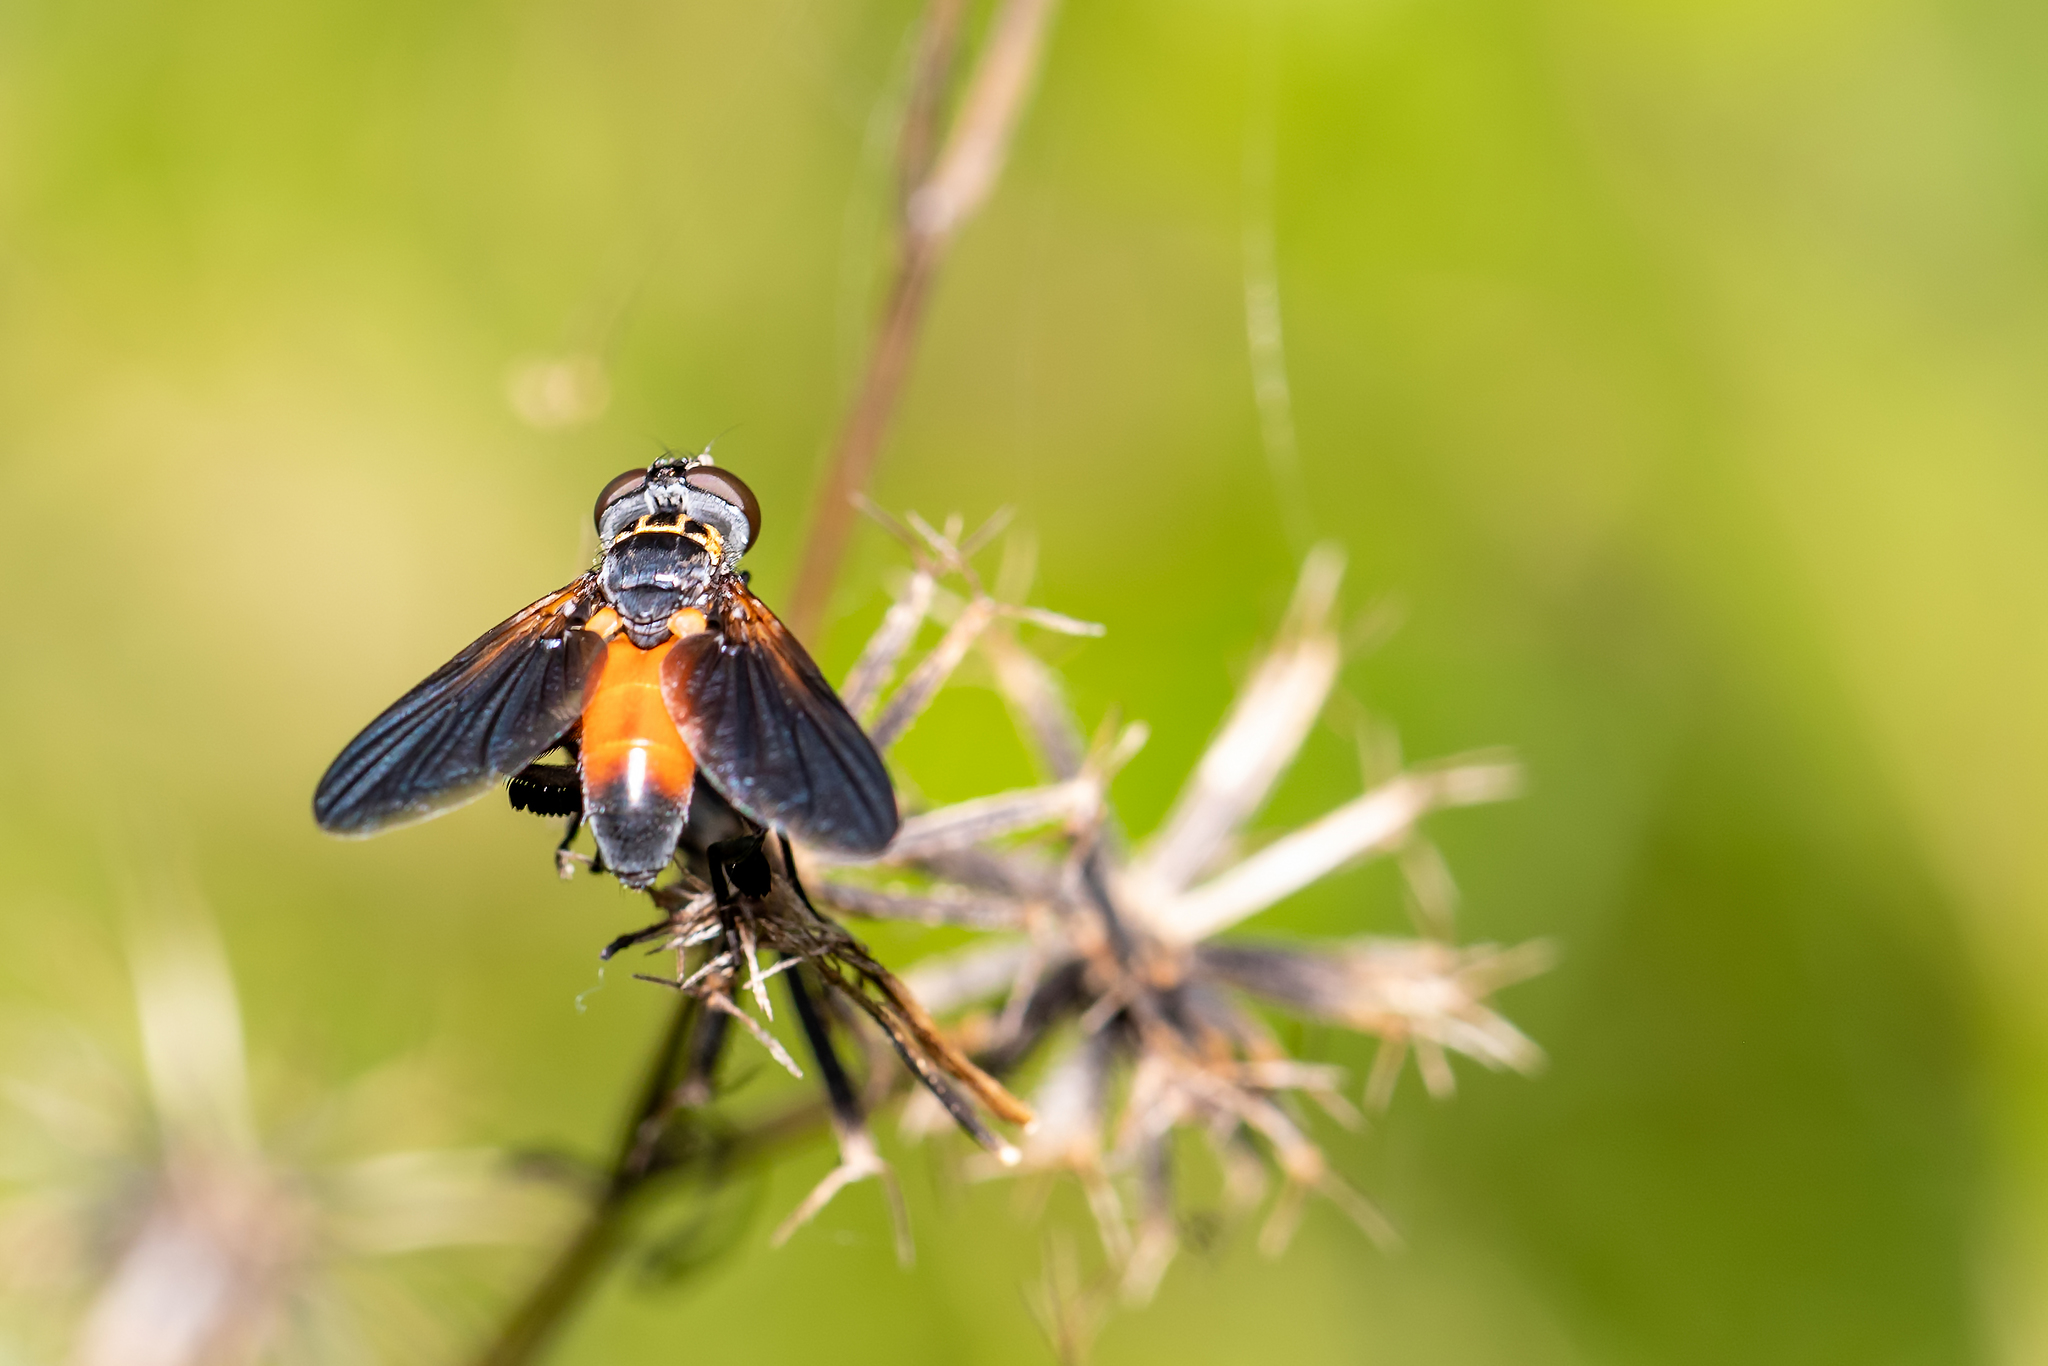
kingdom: Animalia
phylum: Arthropoda
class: Insecta
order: Diptera
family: Tachinidae
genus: Trichopoda
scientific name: Trichopoda pennipes
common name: Tachinid fly
